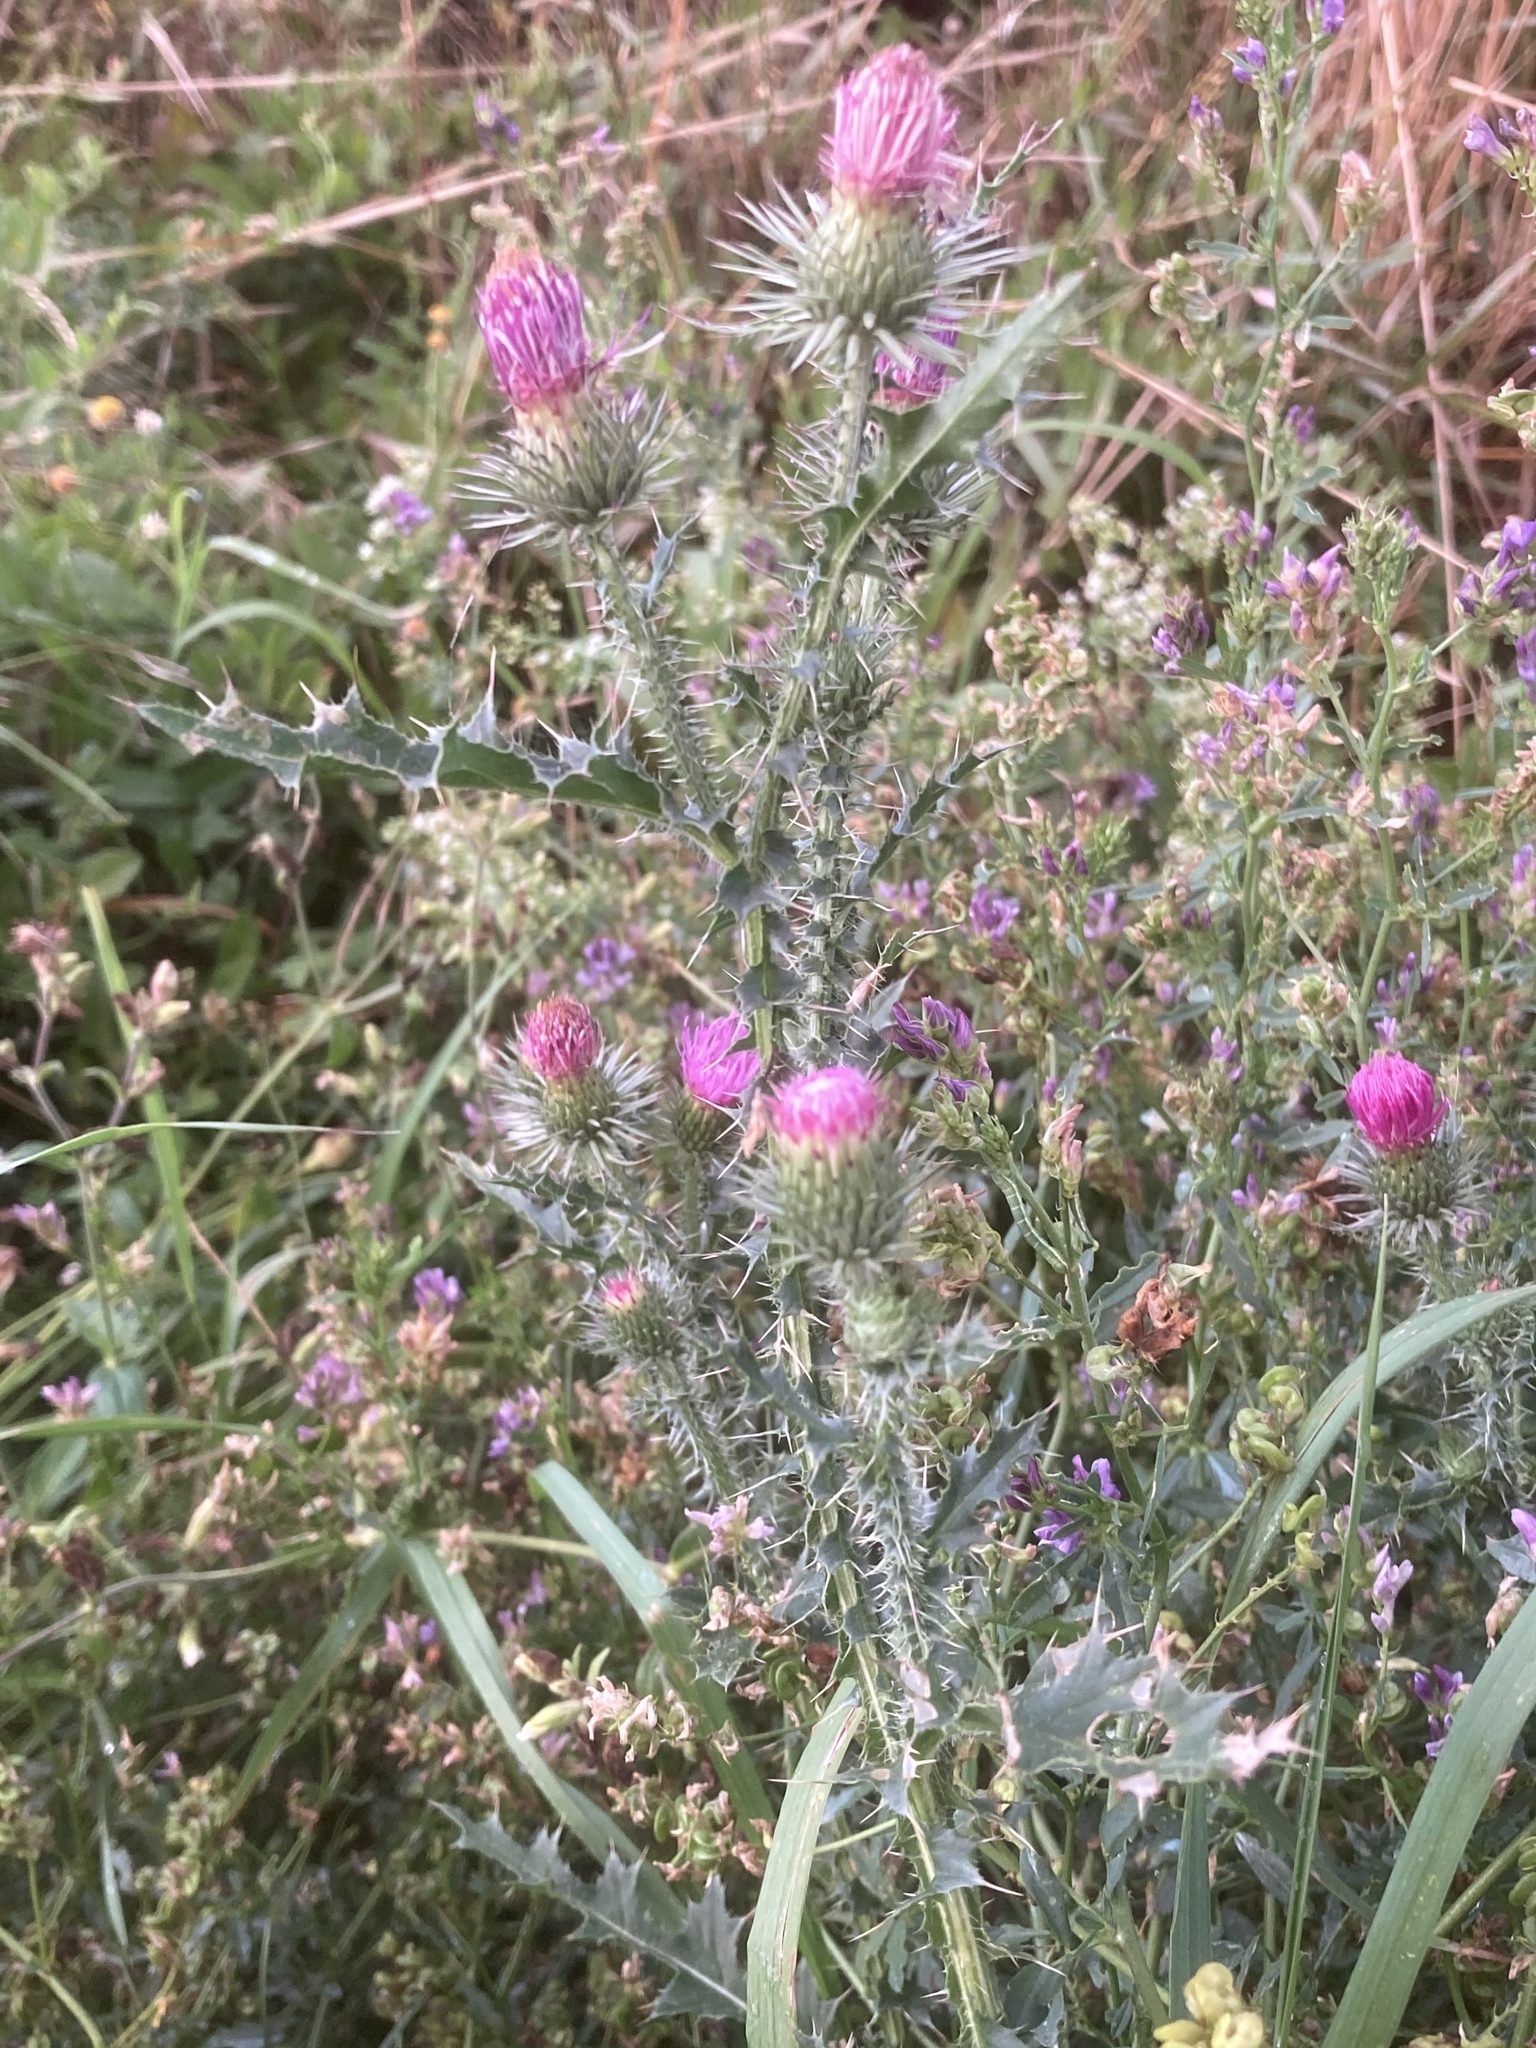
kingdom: Plantae
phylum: Tracheophyta
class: Magnoliopsida
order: Asterales
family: Asteraceae
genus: Carduus
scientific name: Carduus acanthoides
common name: Plumeless thistle
